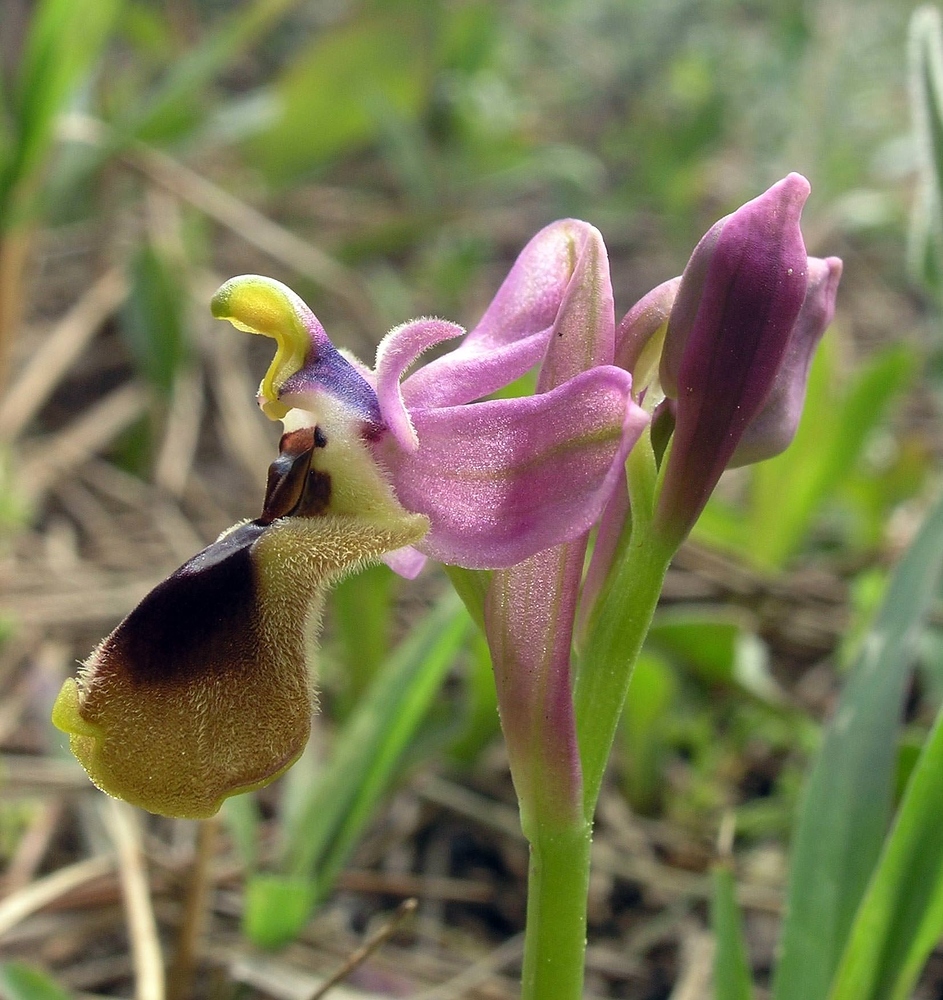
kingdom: Plantae
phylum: Tracheophyta
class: Liliopsida
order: Asparagales
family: Orchidaceae
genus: Ophrys
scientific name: Ophrys tenthredinifera
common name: Sawfly orchid
